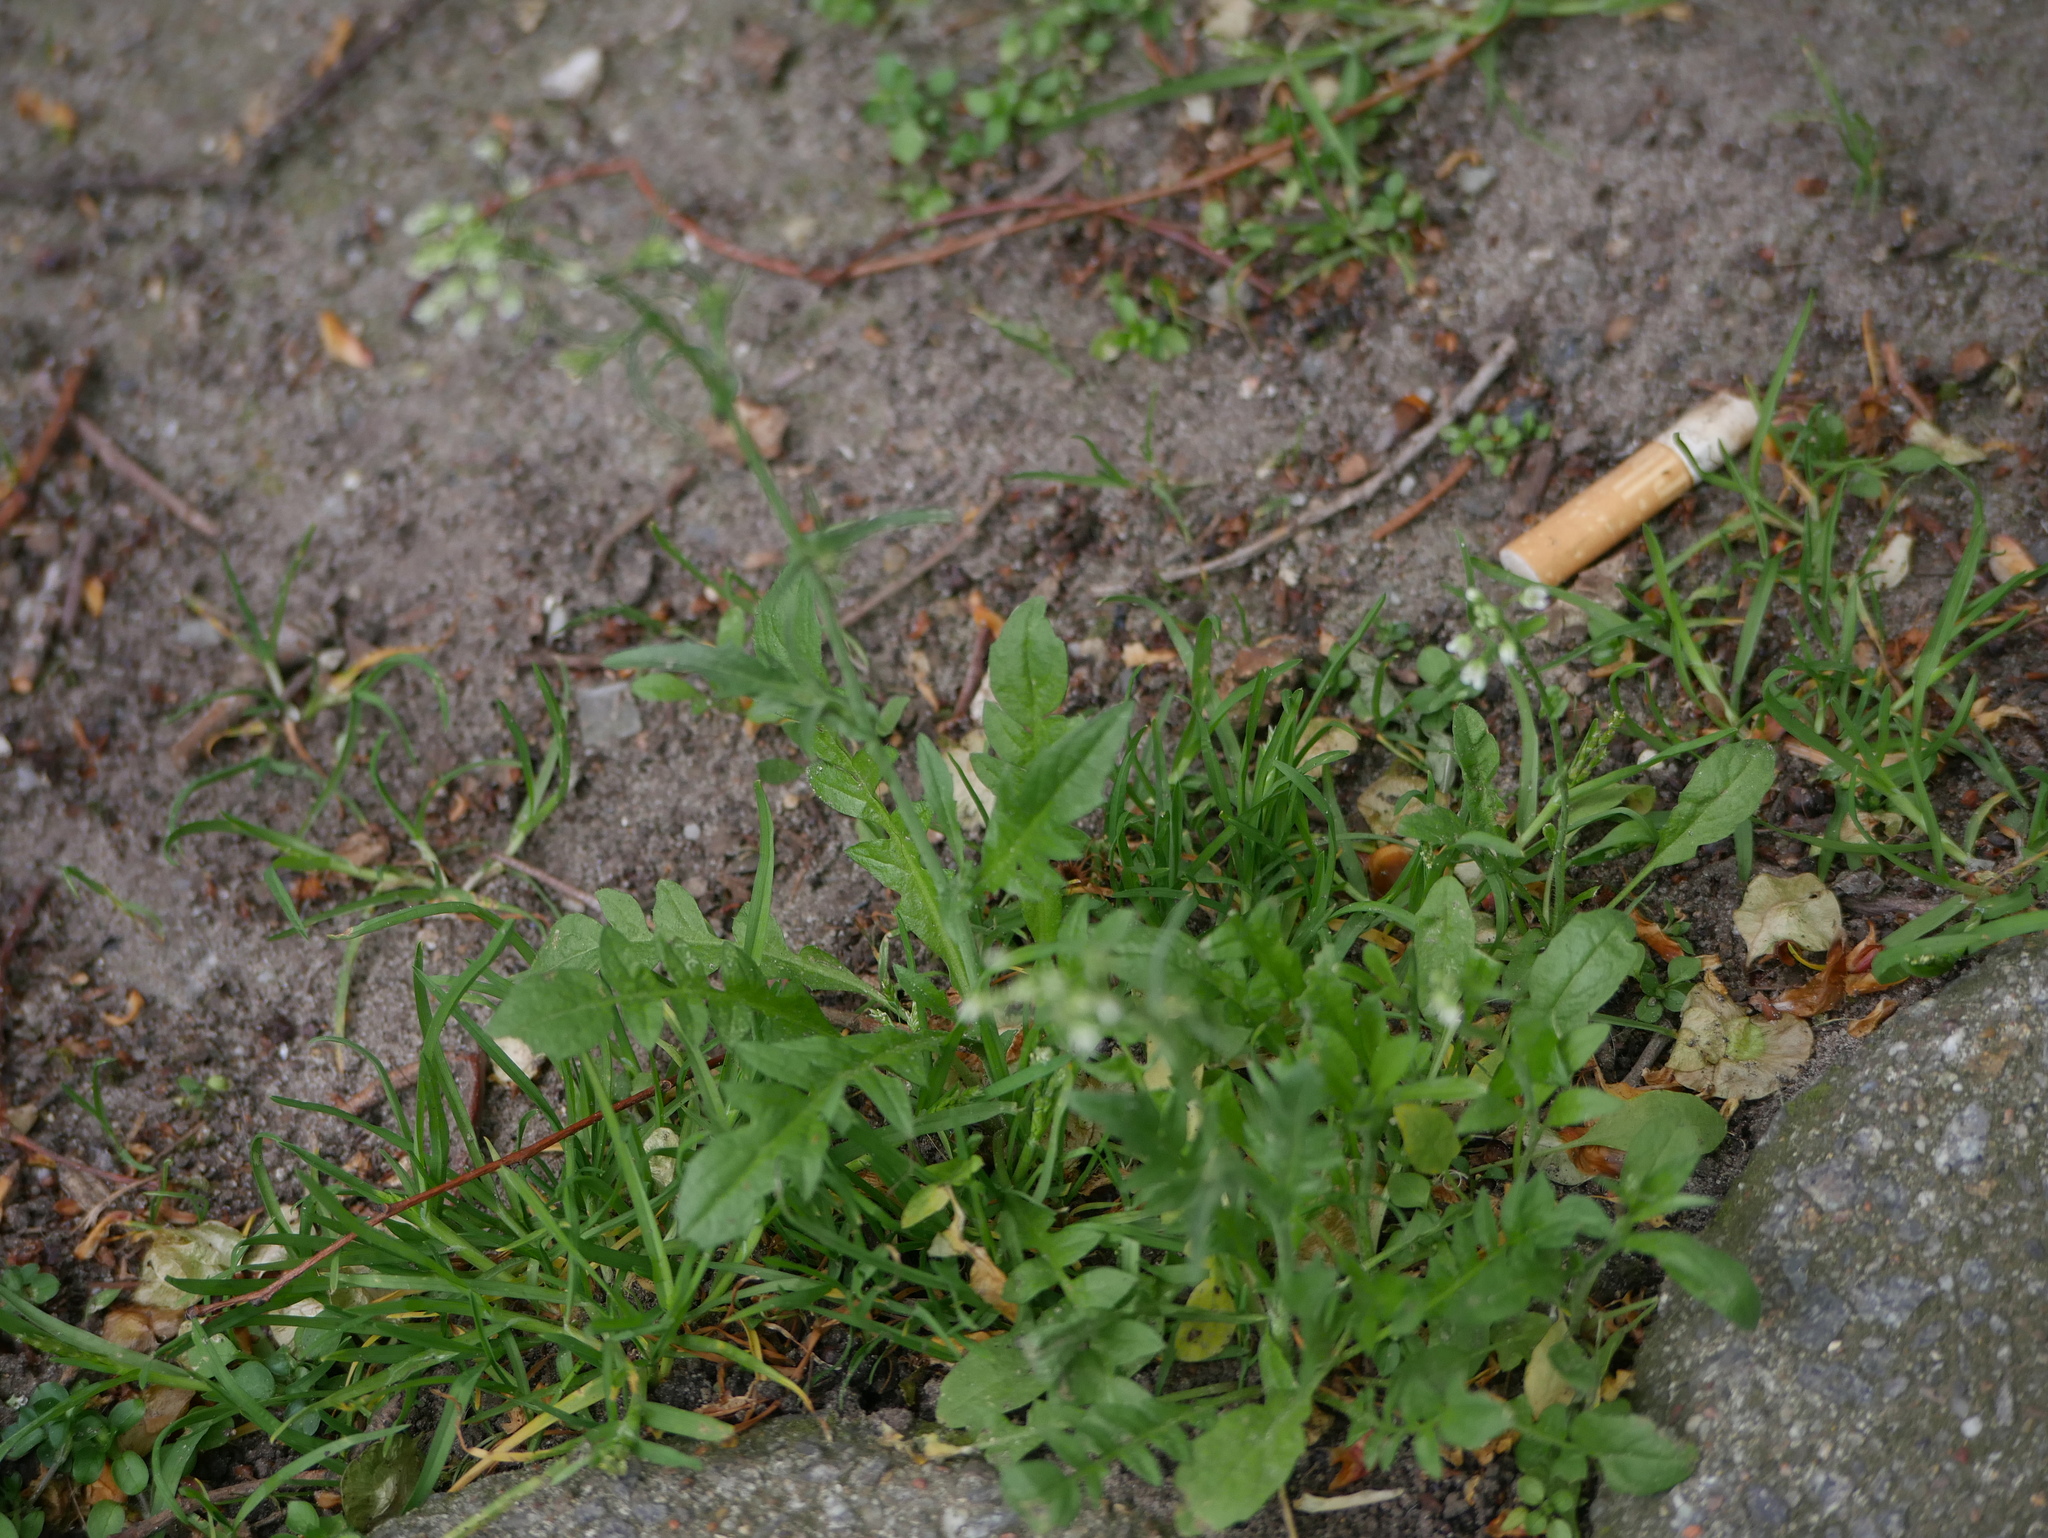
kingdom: Plantae
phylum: Tracheophyta
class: Magnoliopsida
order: Brassicales
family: Brassicaceae
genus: Capsella
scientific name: Capsella bursa-pastoris
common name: Shepherd's purse
